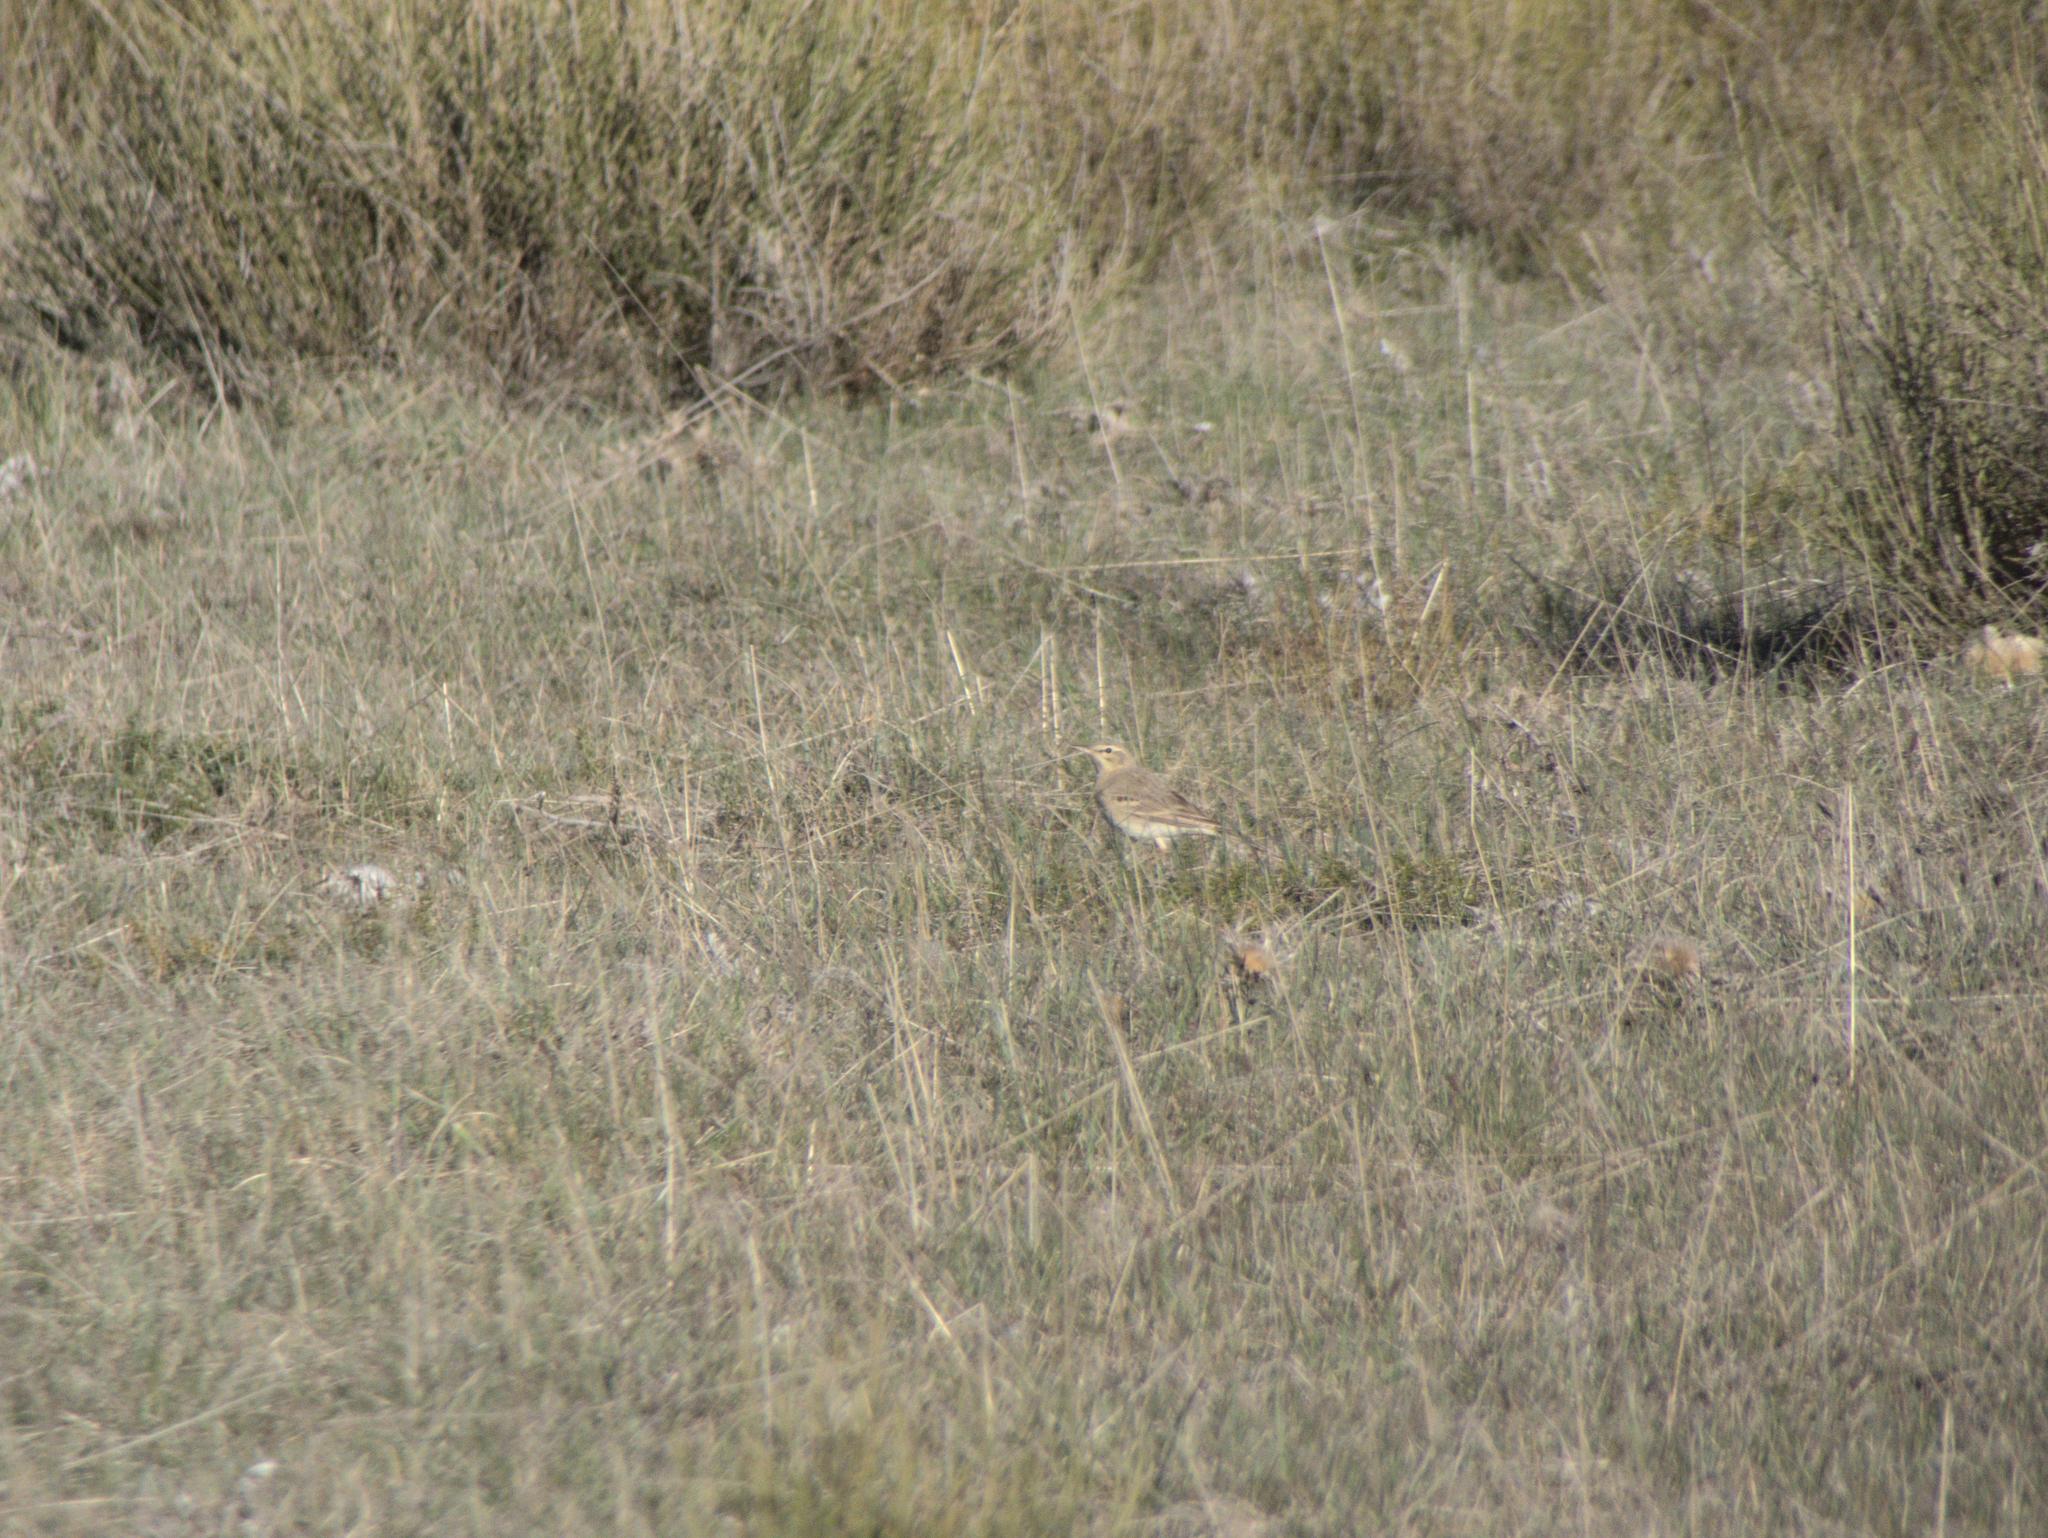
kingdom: Animalia
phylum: Chordata
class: Aves
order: Passeriformes
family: Motacillidae
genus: Anthus
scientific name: Anthus campestris
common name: Tawny pipit
